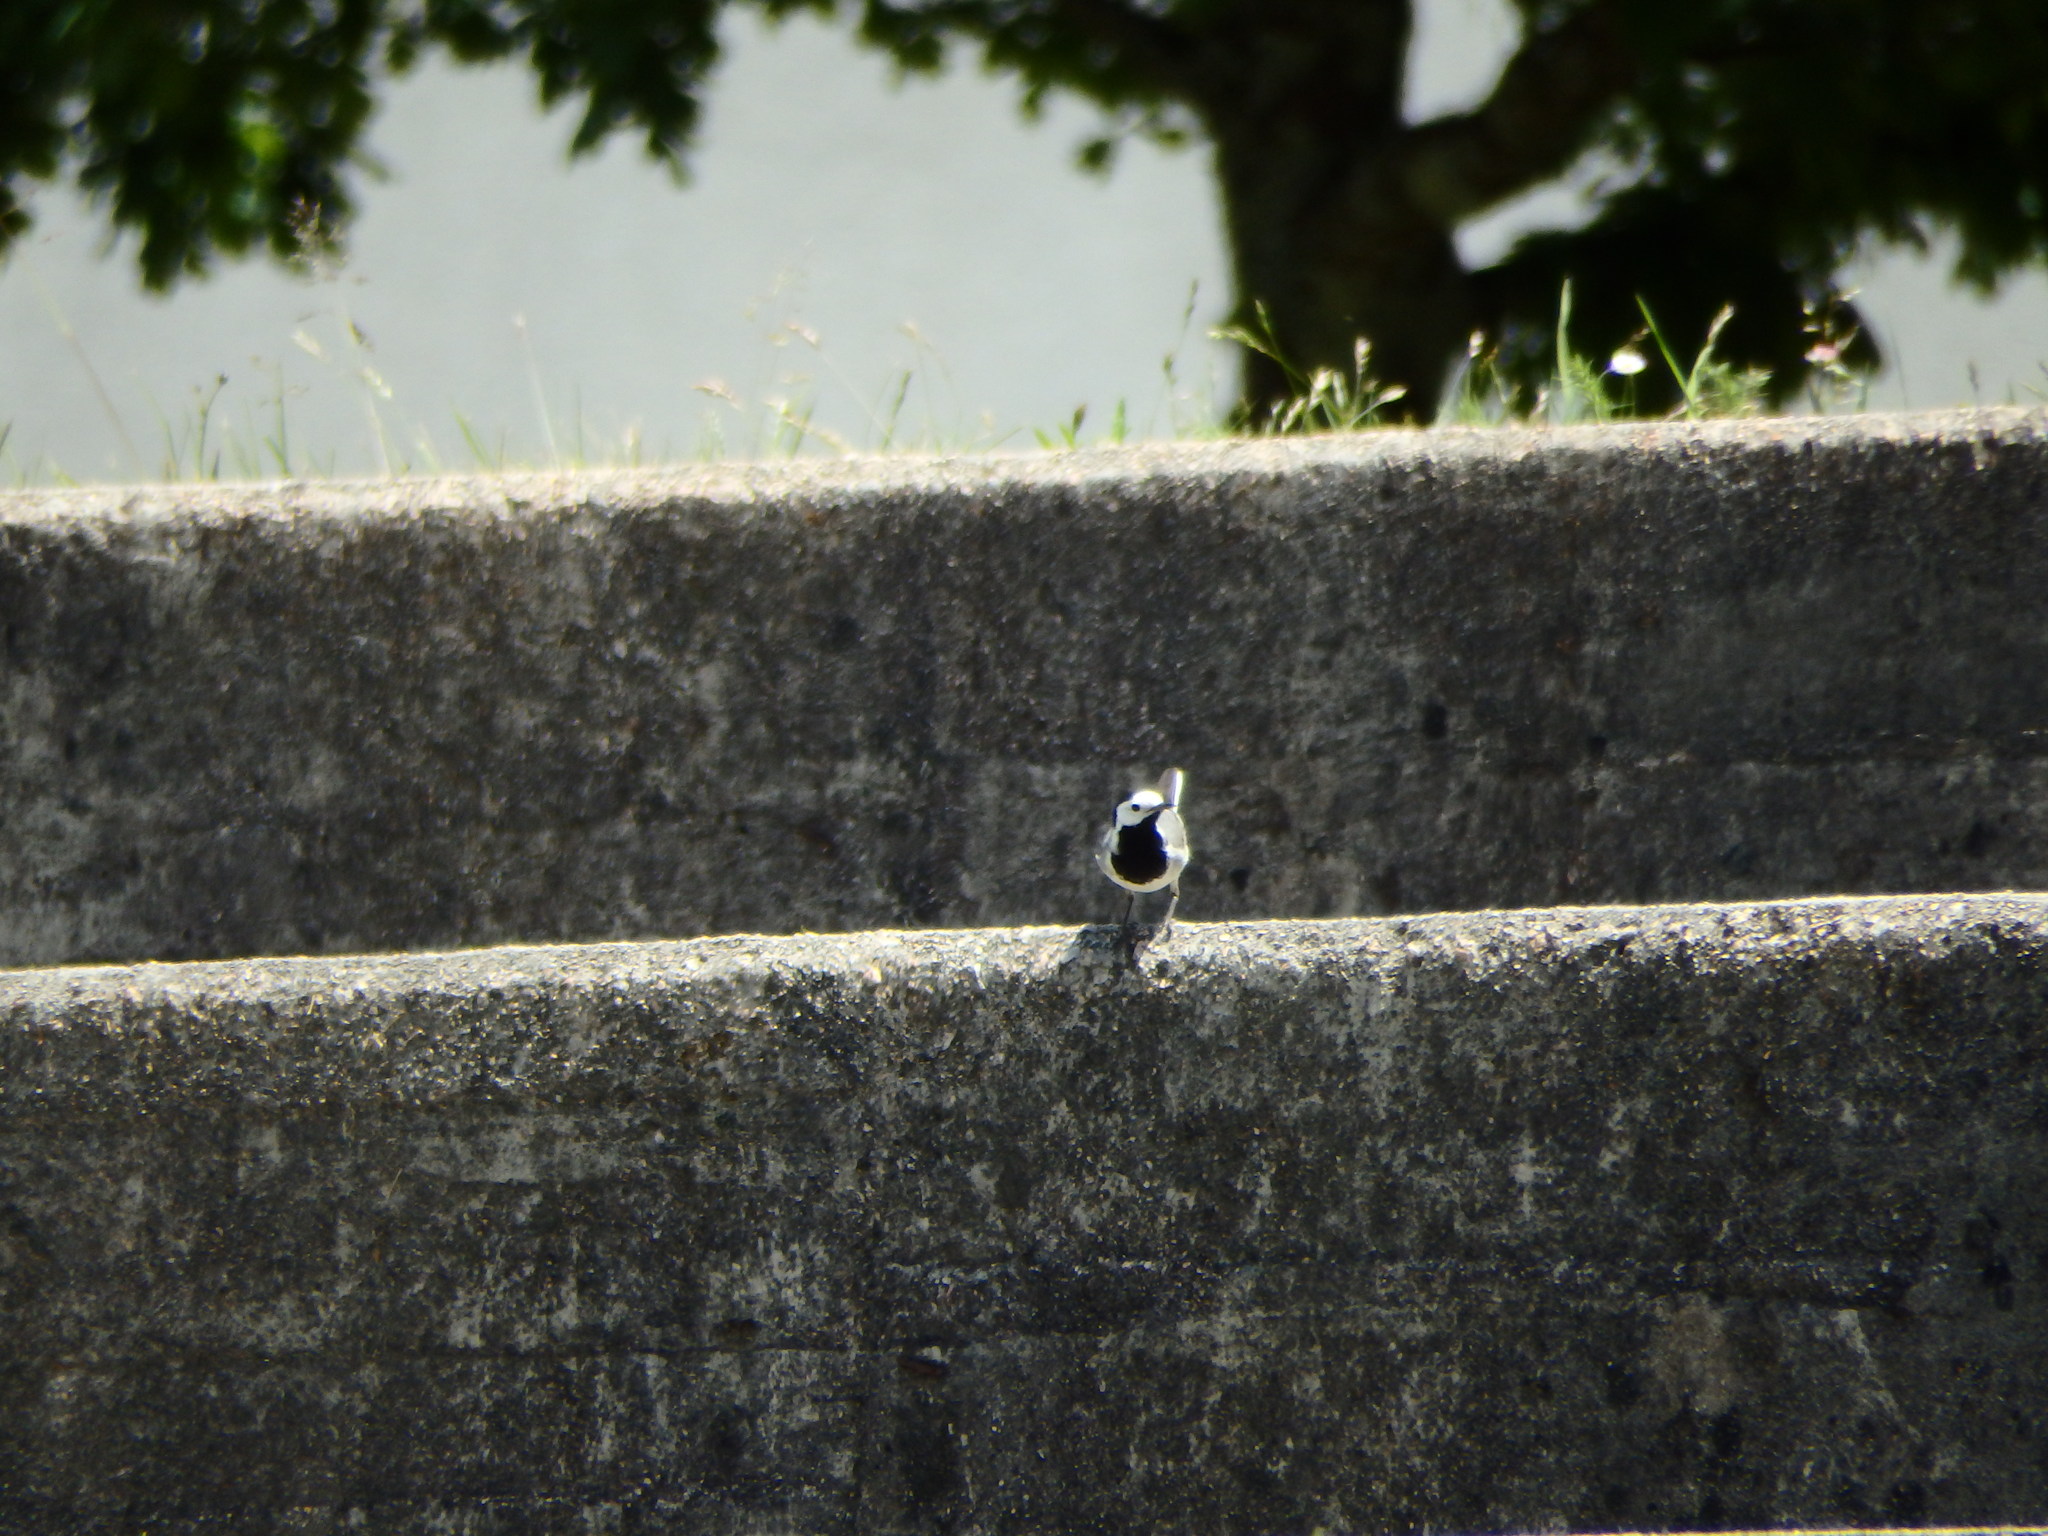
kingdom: Animalia
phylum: Chordata
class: Aves
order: Passeriformes
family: Motacillidae
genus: Motacilla
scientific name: Motacilla alba
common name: White wagtail
